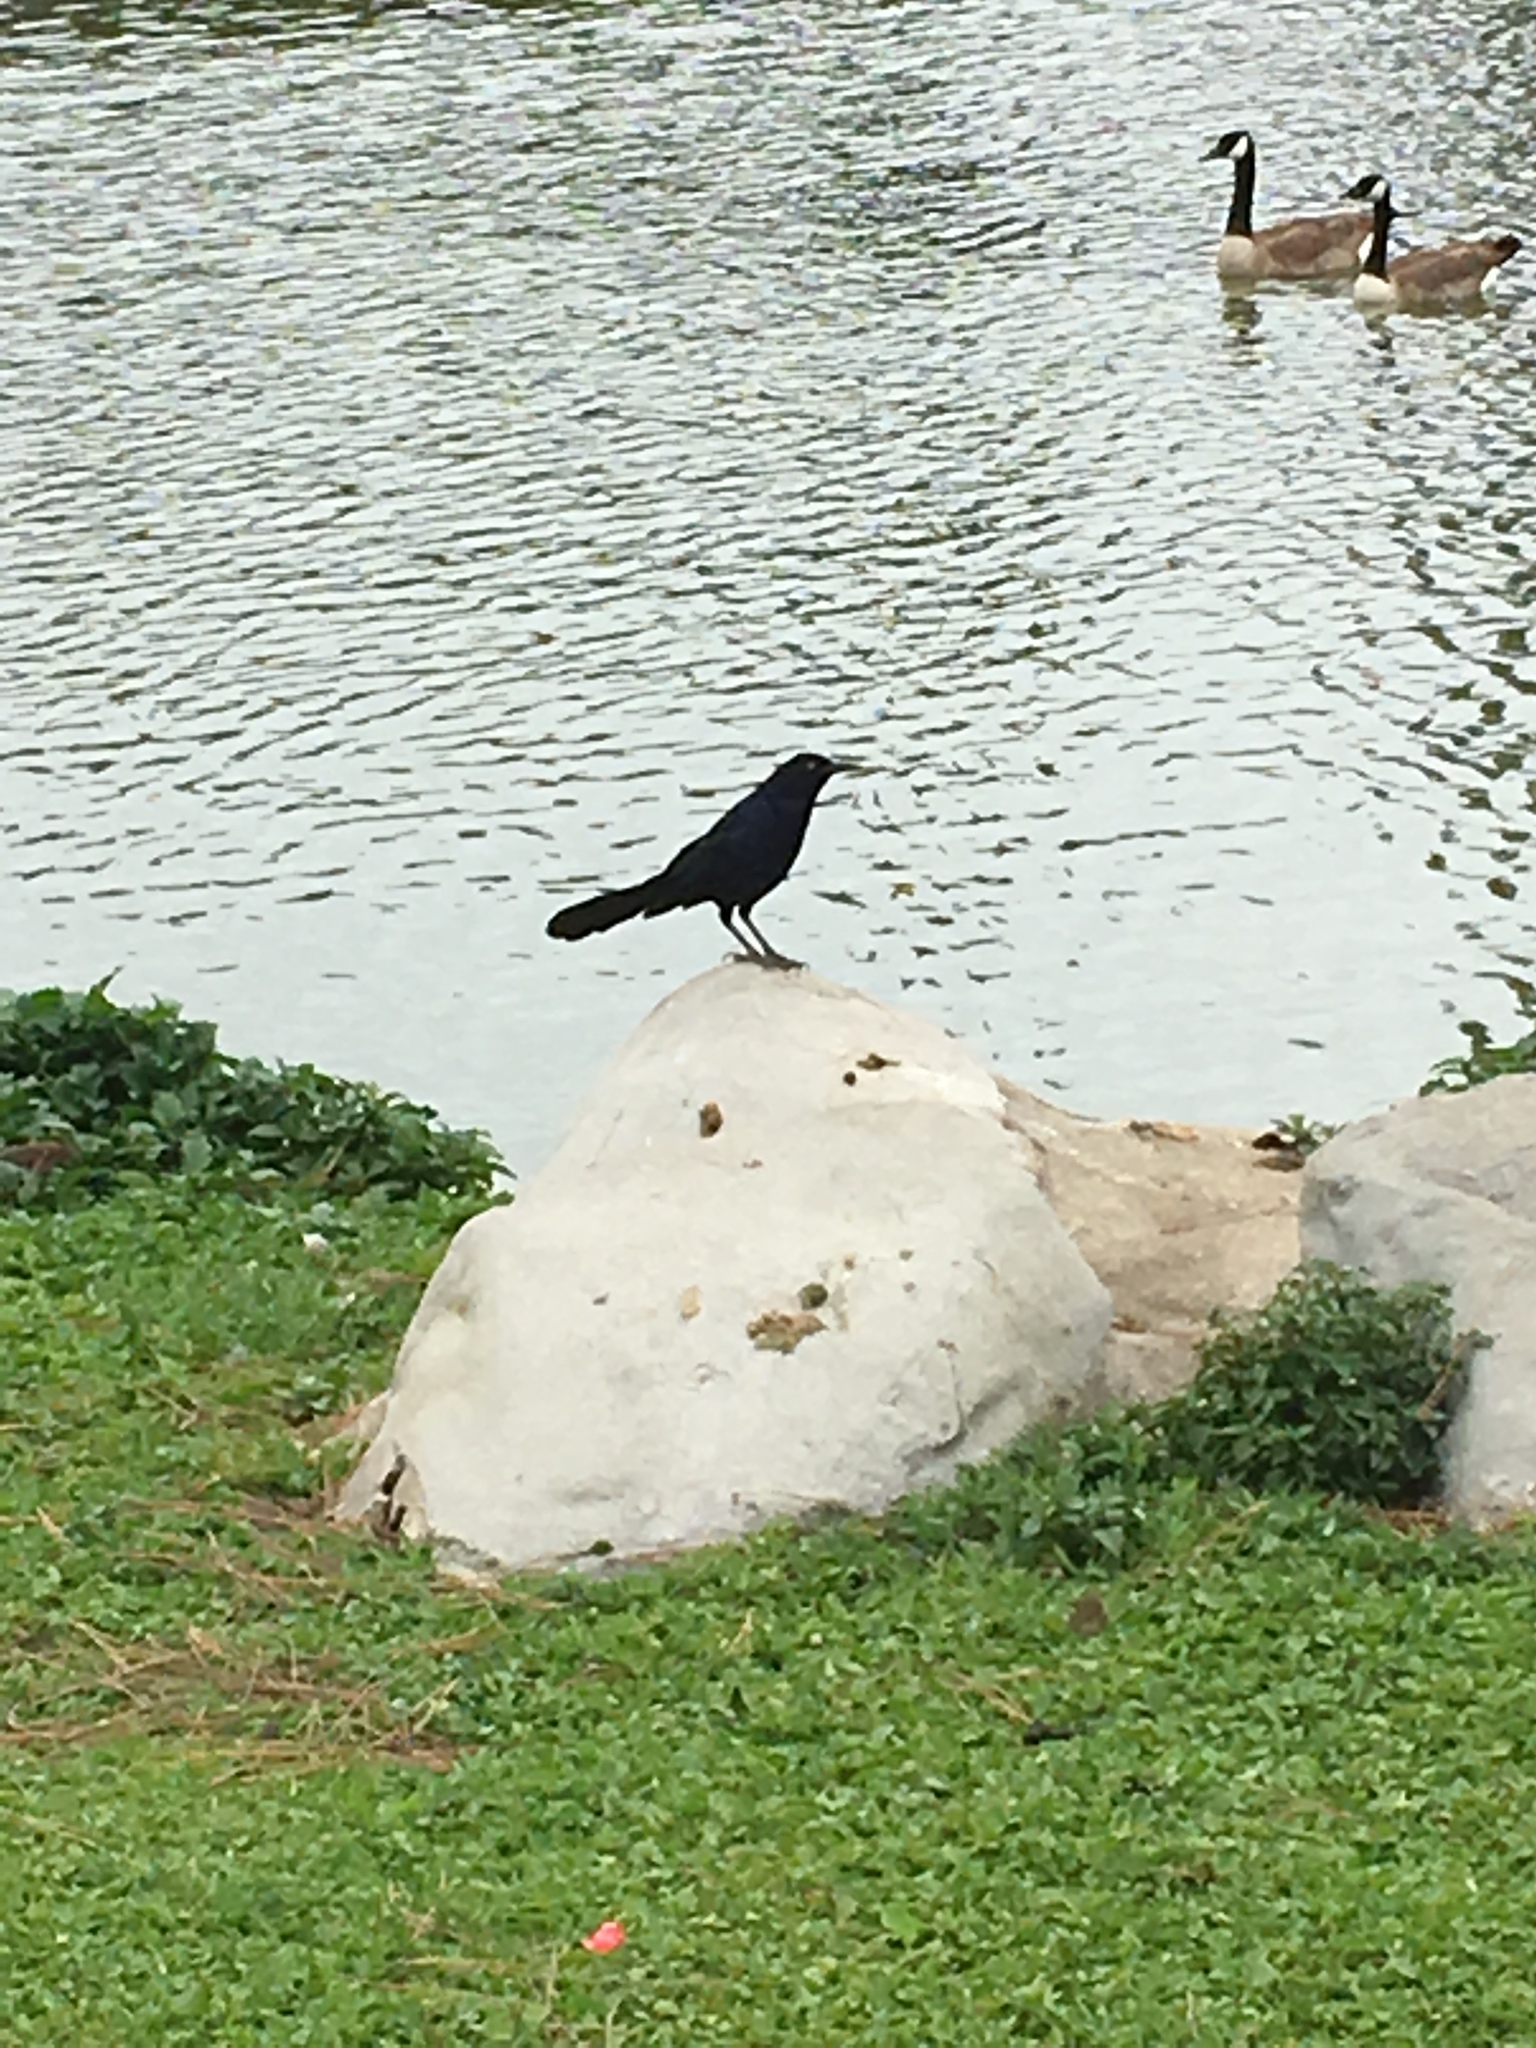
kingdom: Animalia
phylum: Chordata
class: Aves
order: Passeriformes
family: Icteridae
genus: Quiscalus
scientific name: Quiscalus mexicanus
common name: Great-tailed grackle
